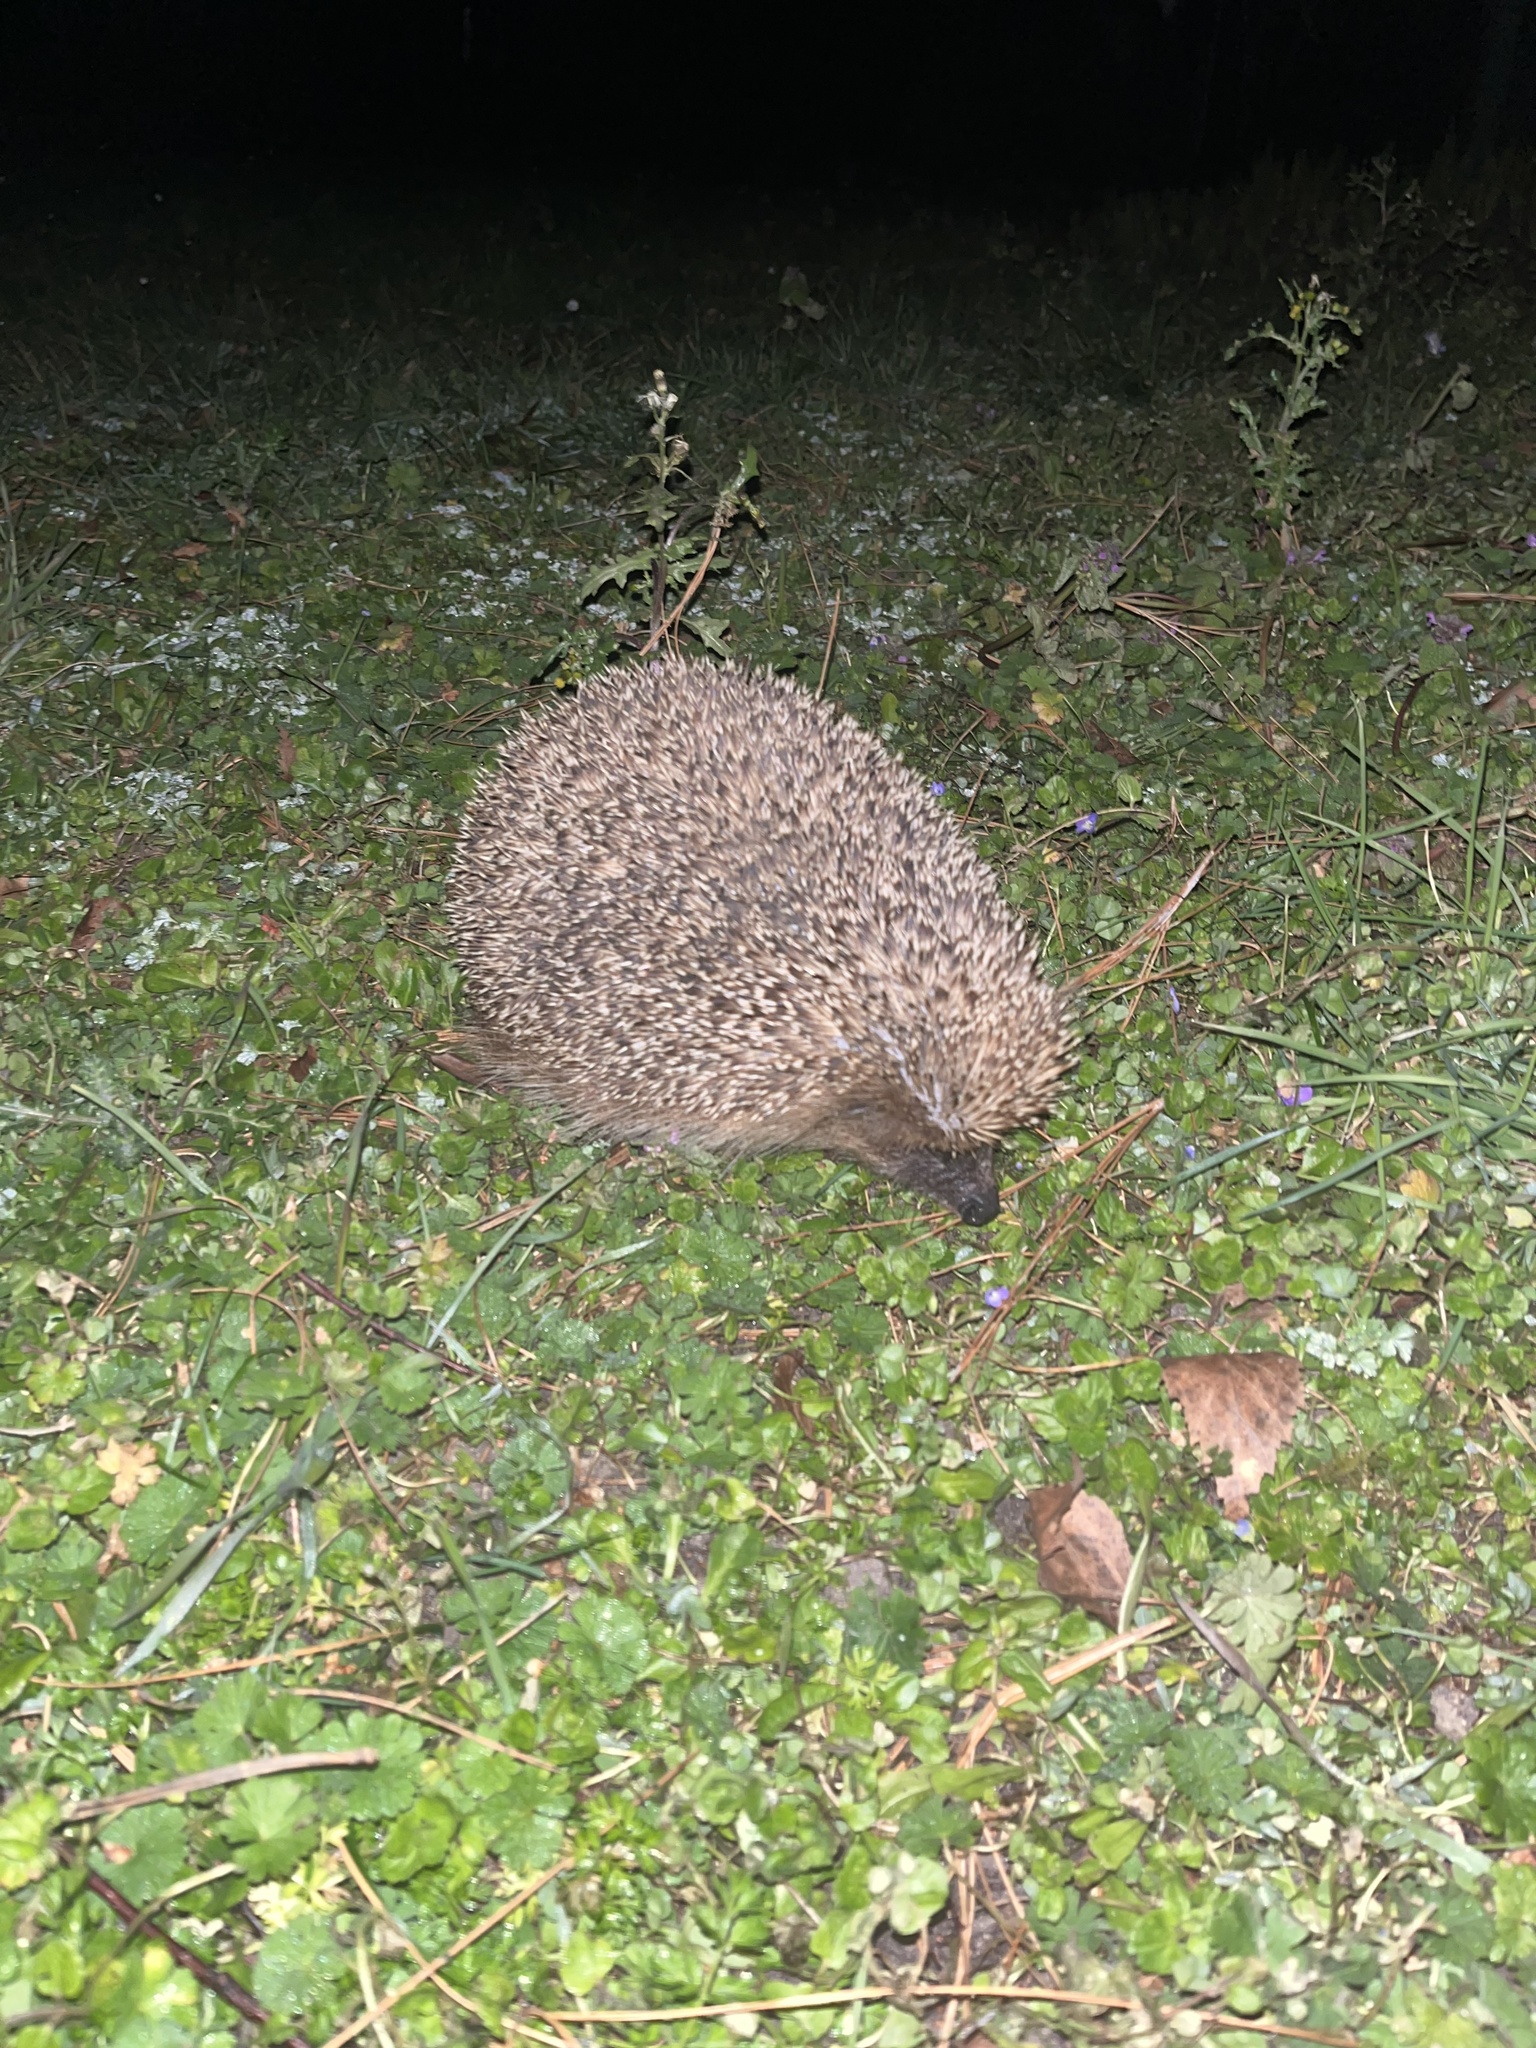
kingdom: Animalia
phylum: Chordata
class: Mammalia
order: Erinaceomorpha
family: Erinaceidae
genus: Erinaceus
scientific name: Erinaceus europaeus
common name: West european hedgehog
